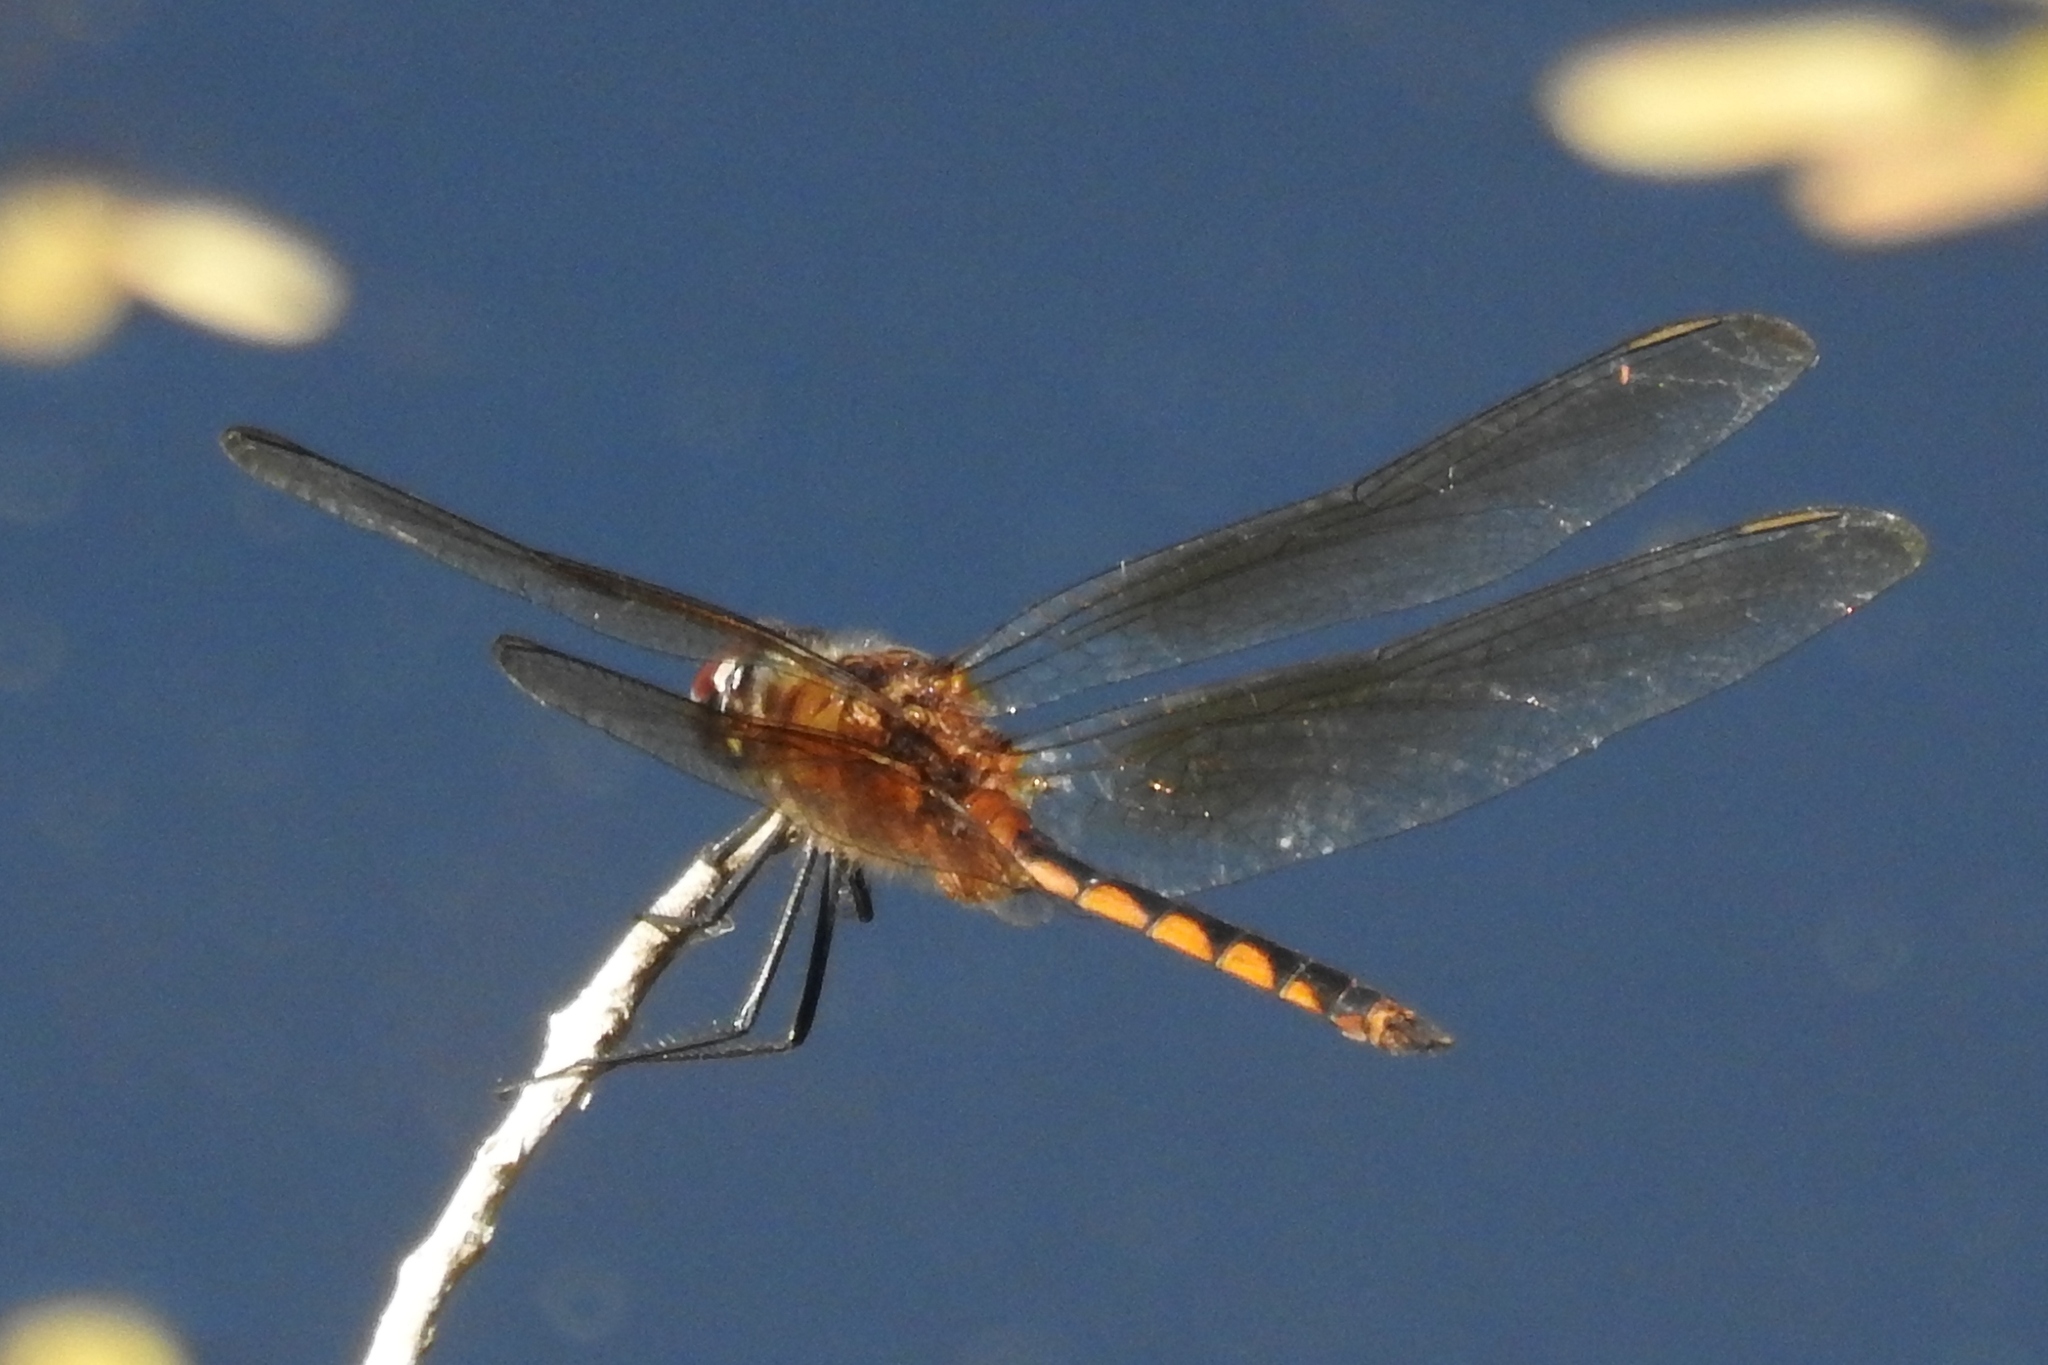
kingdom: Animalia
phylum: Arthropoda
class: Insecta
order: Odonata
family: Libellulidae
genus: Brachymesia
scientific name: Brachymesia herbida
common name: Tawny pennant
